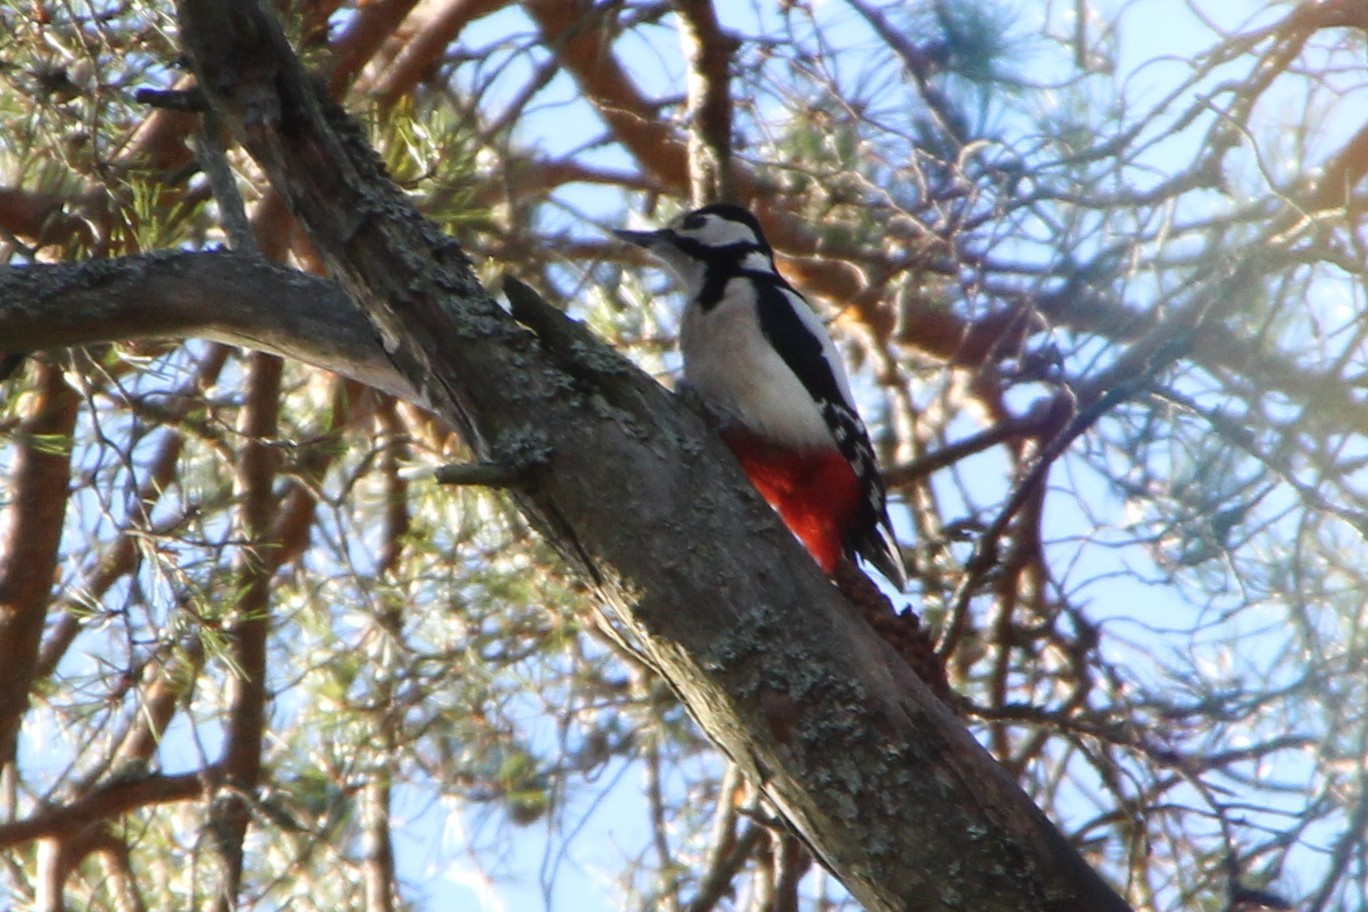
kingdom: Animalia
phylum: Chordata
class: Aves
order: Piciformes
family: Picidae
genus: Dendrocopos
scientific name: Dendrocopos major
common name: Great spotted woodpecker
